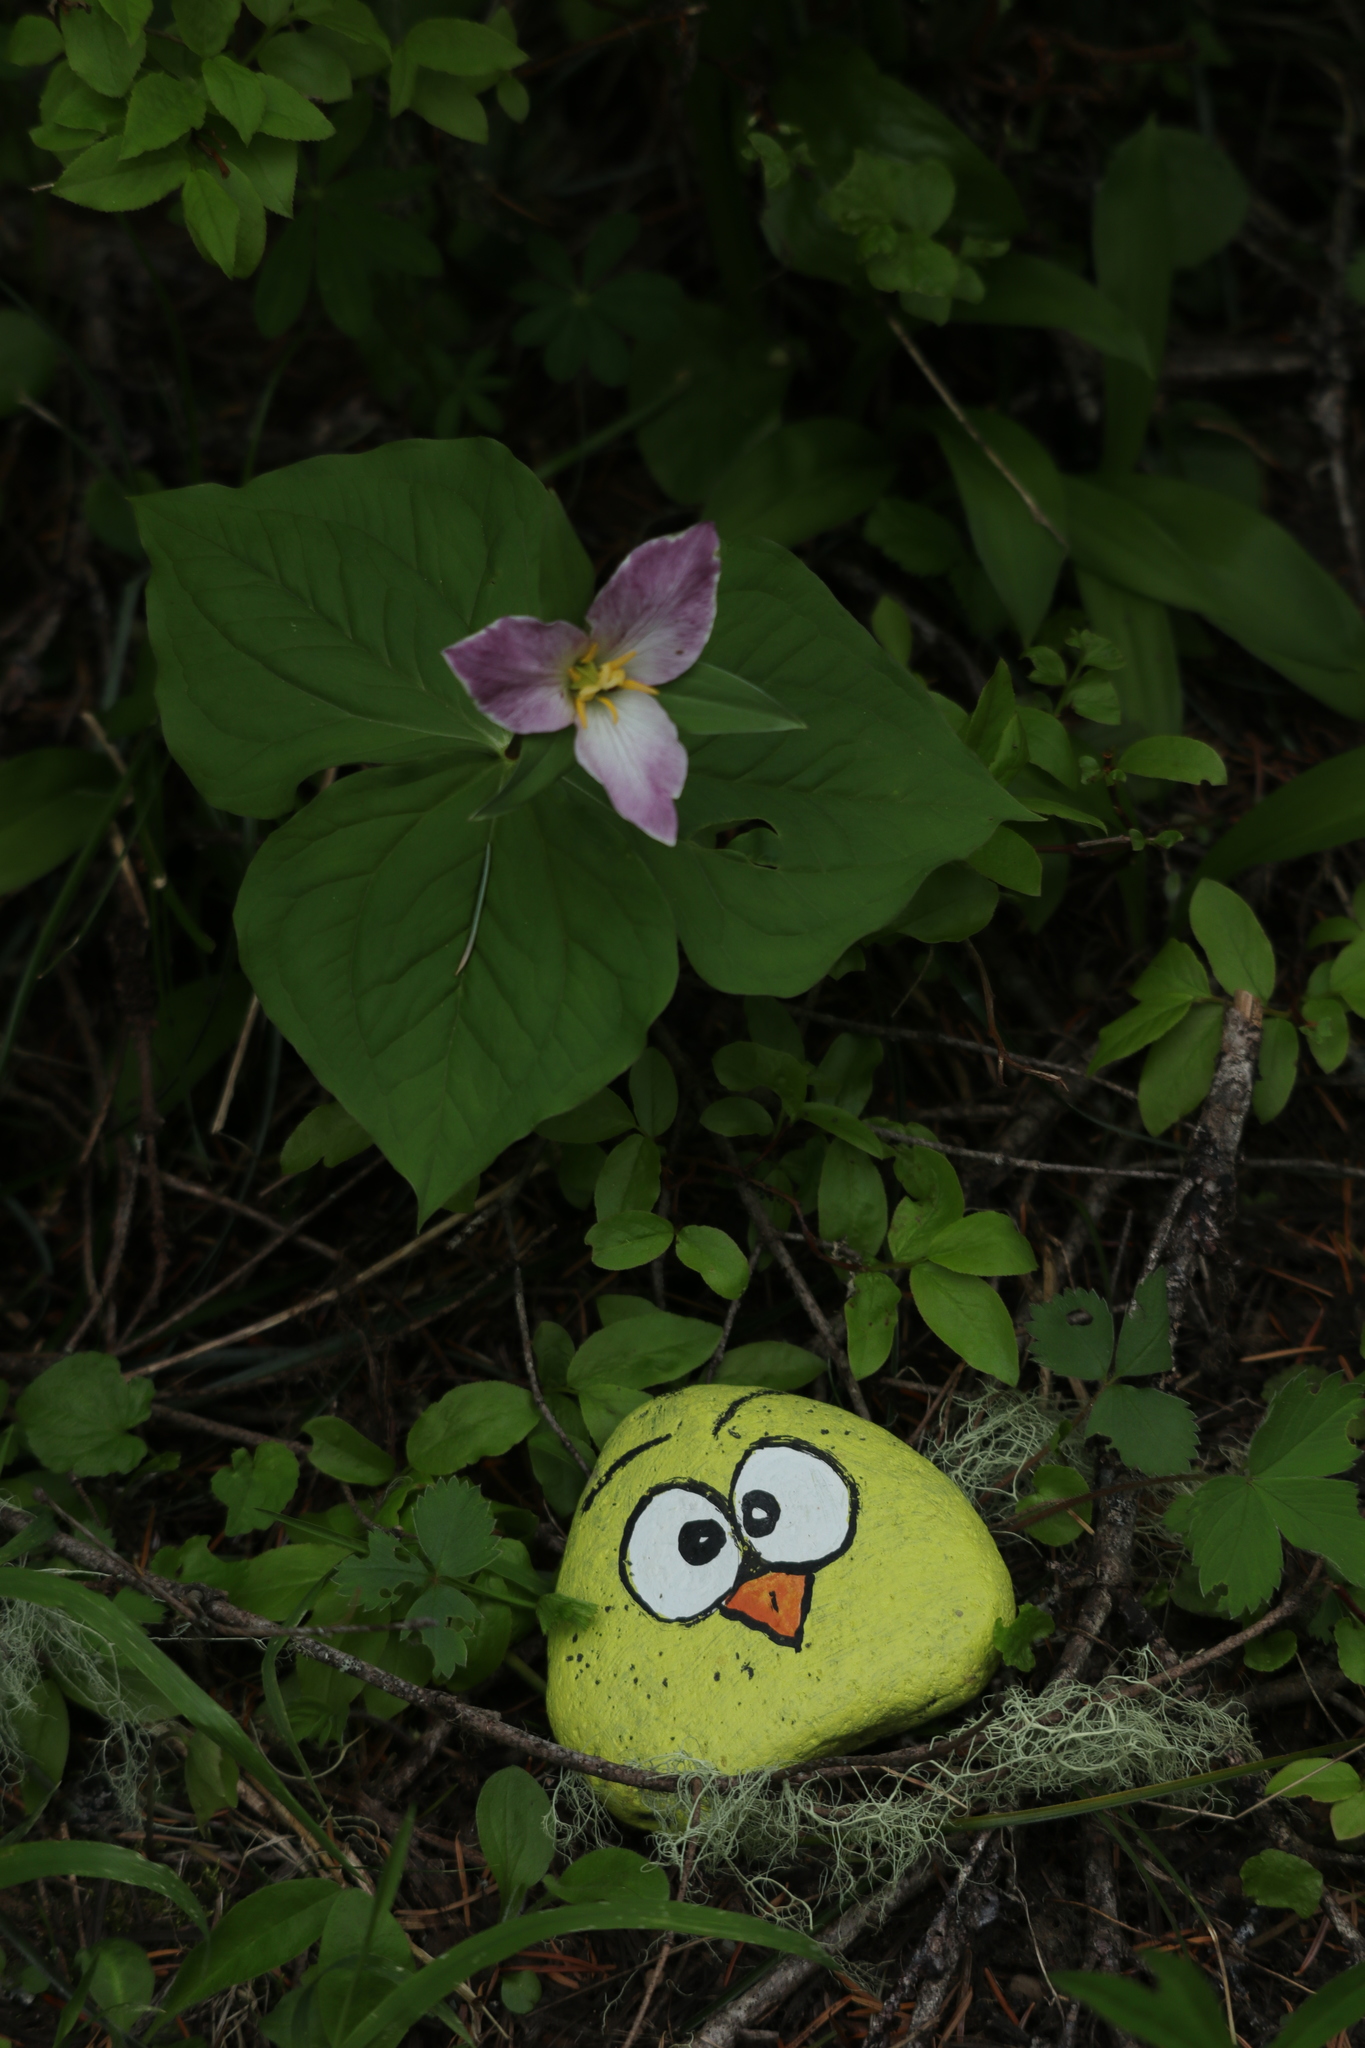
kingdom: Plantae
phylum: Tracheophyta
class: Liliopsida
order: Liliales
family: Melanthiaceae
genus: Trillium
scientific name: Trillium ovatum
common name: Pacific trillium
